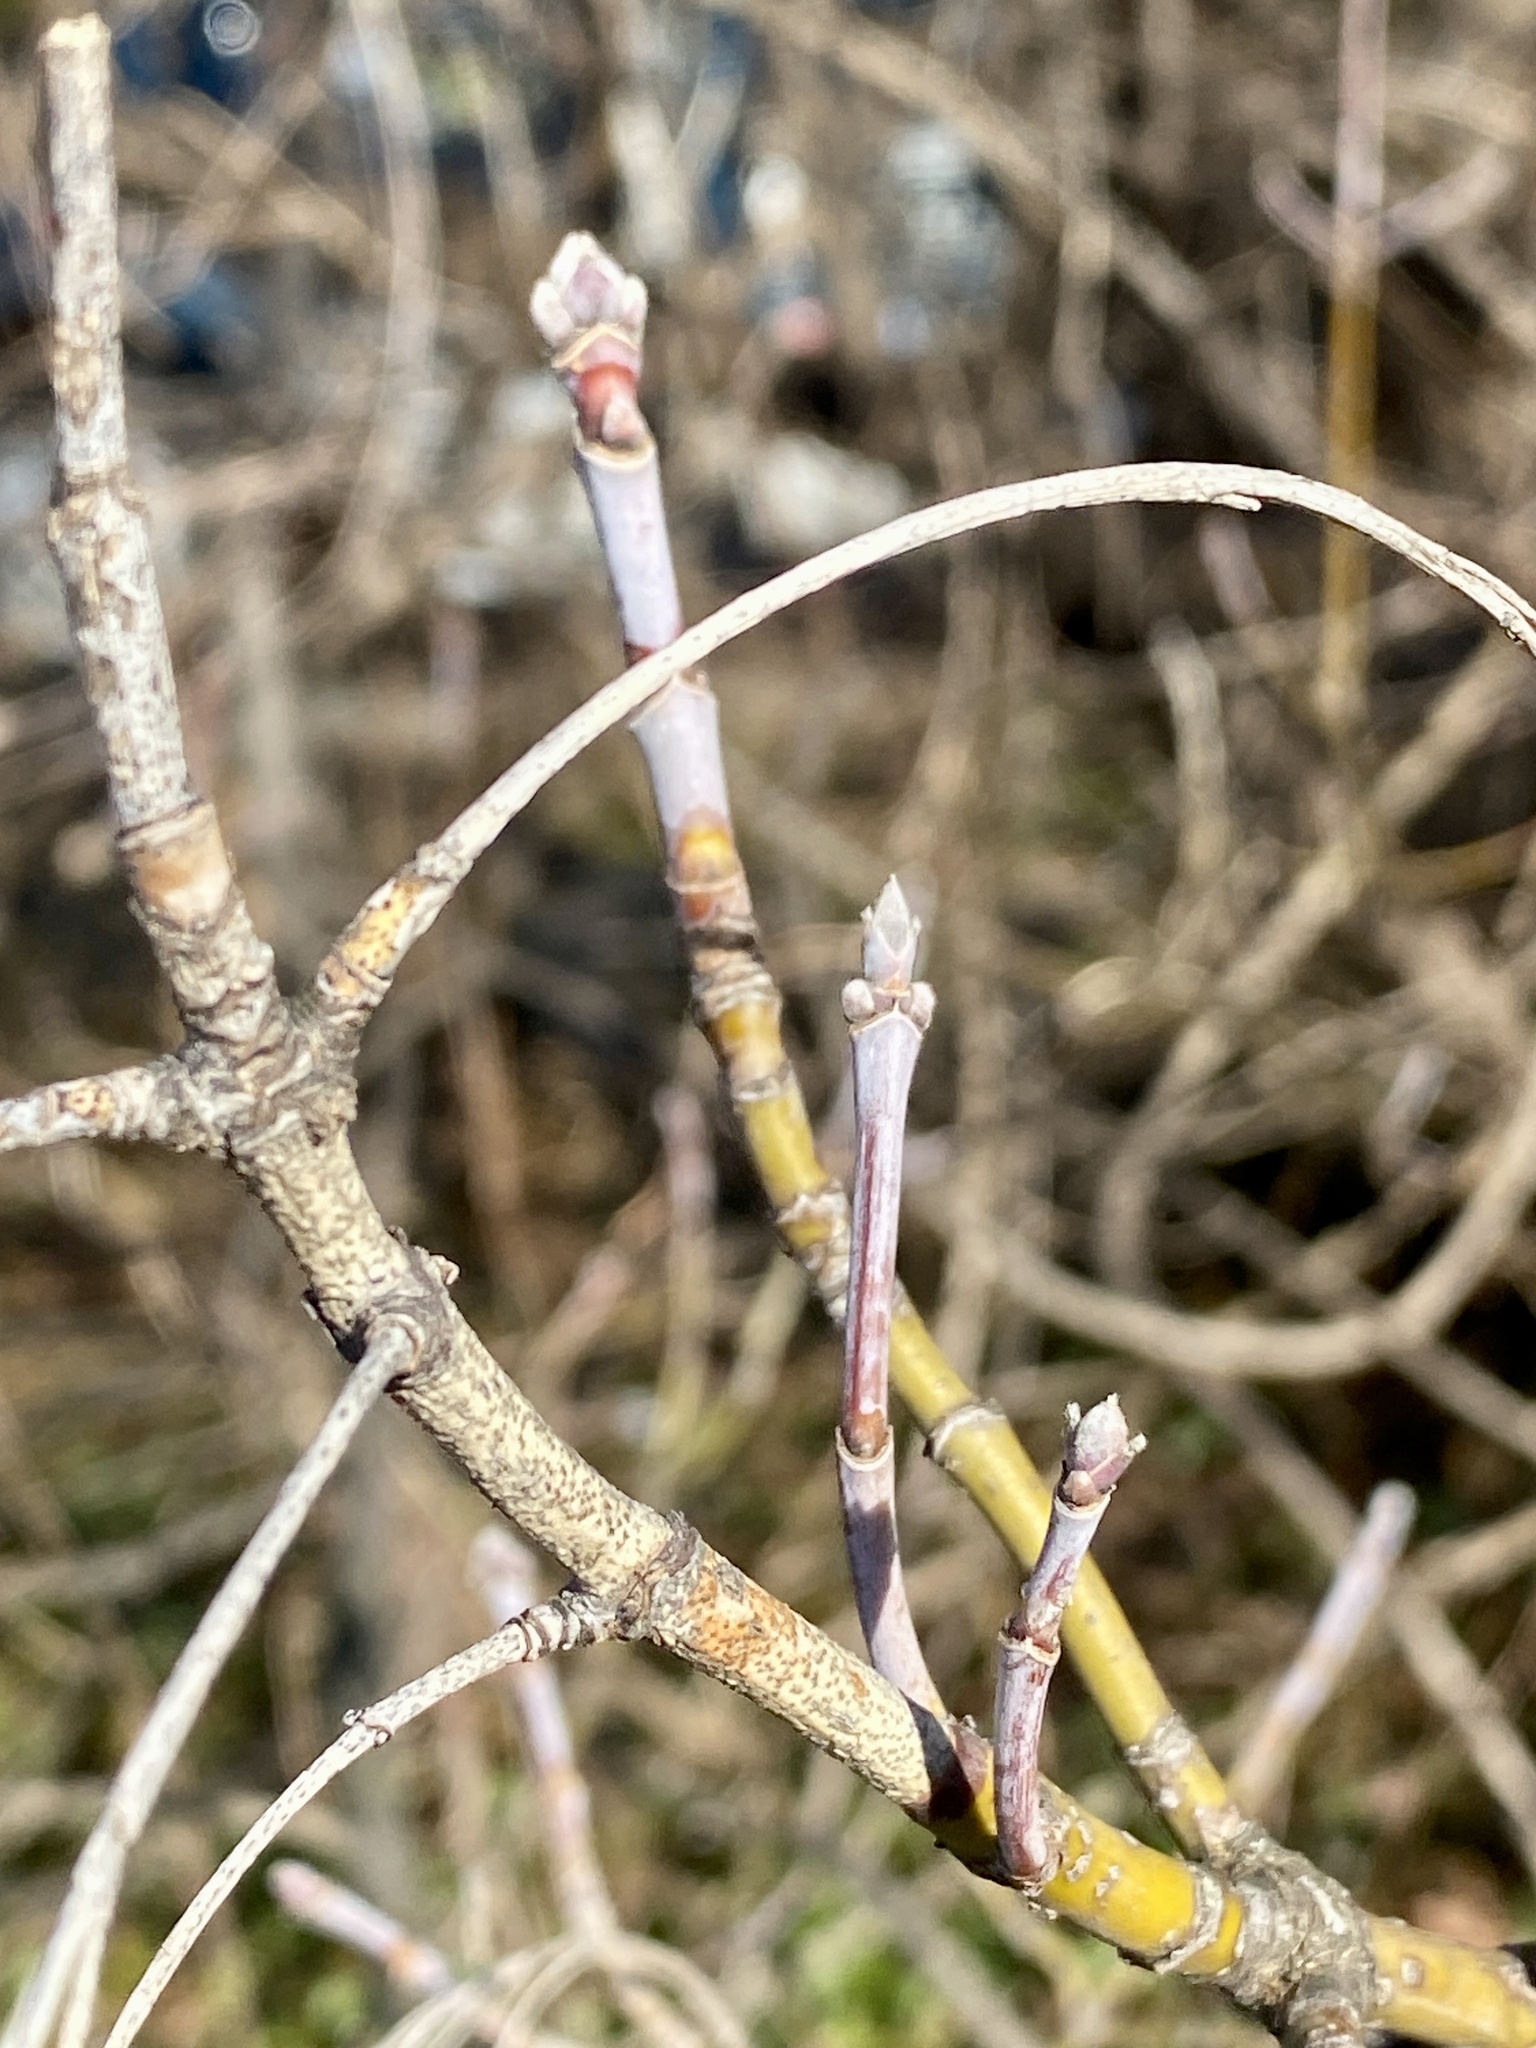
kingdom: Plantae
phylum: Tracheophyta
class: Magnoliopsida
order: Sapindales
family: Sapindaceae
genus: Acer
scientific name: Acer negundo
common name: Ashleaf maple
